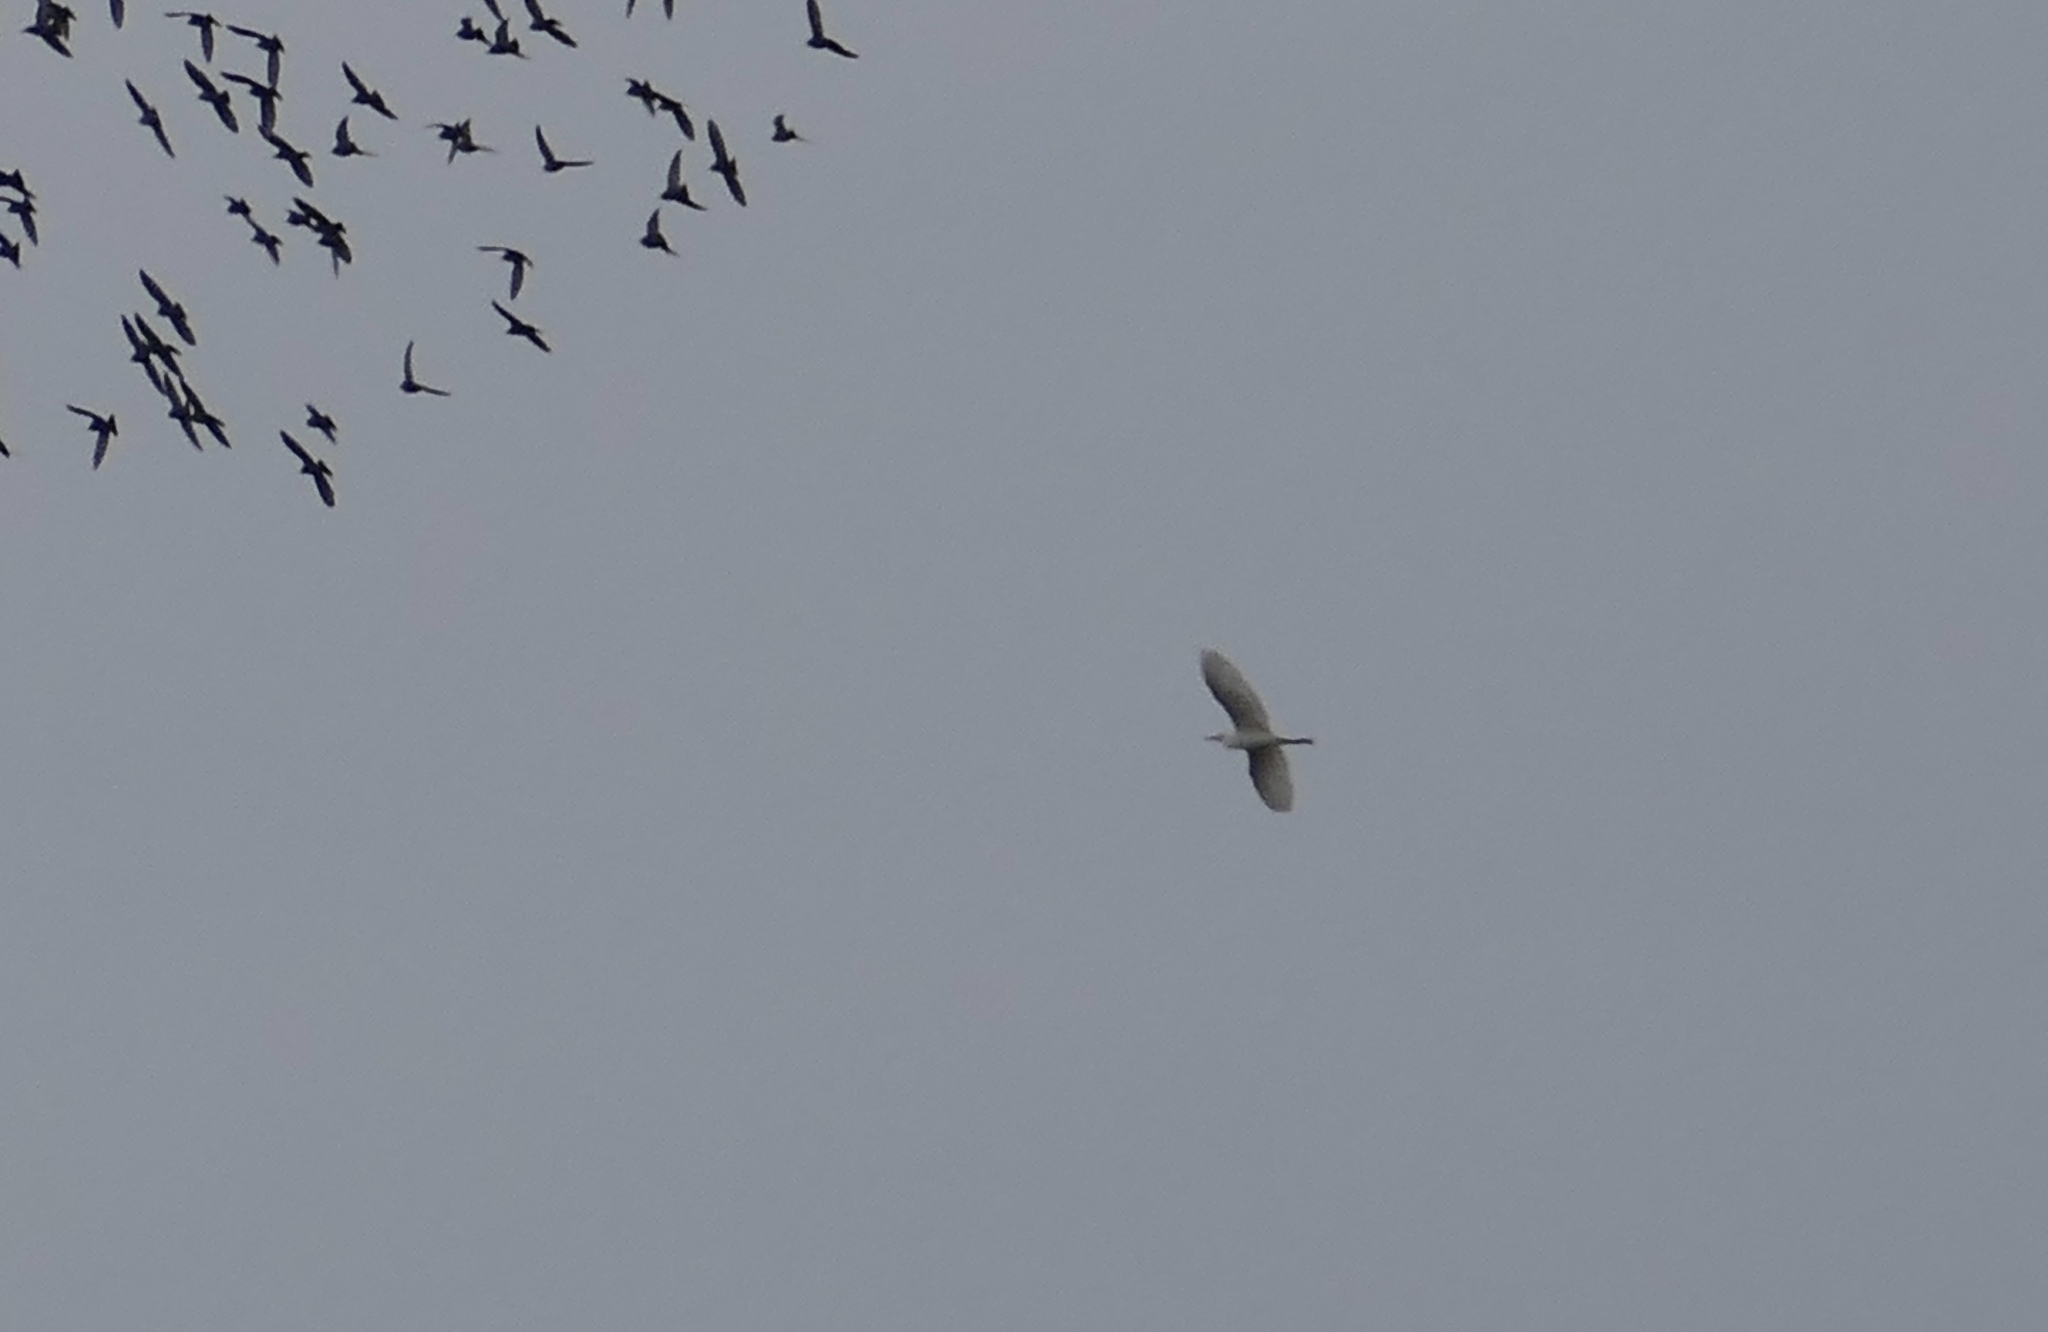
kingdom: Animalia
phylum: Chordata
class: Aves
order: Pelecaniformes
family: Ardeidae
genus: Ardea
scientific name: Ardea alba
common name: Great egret
